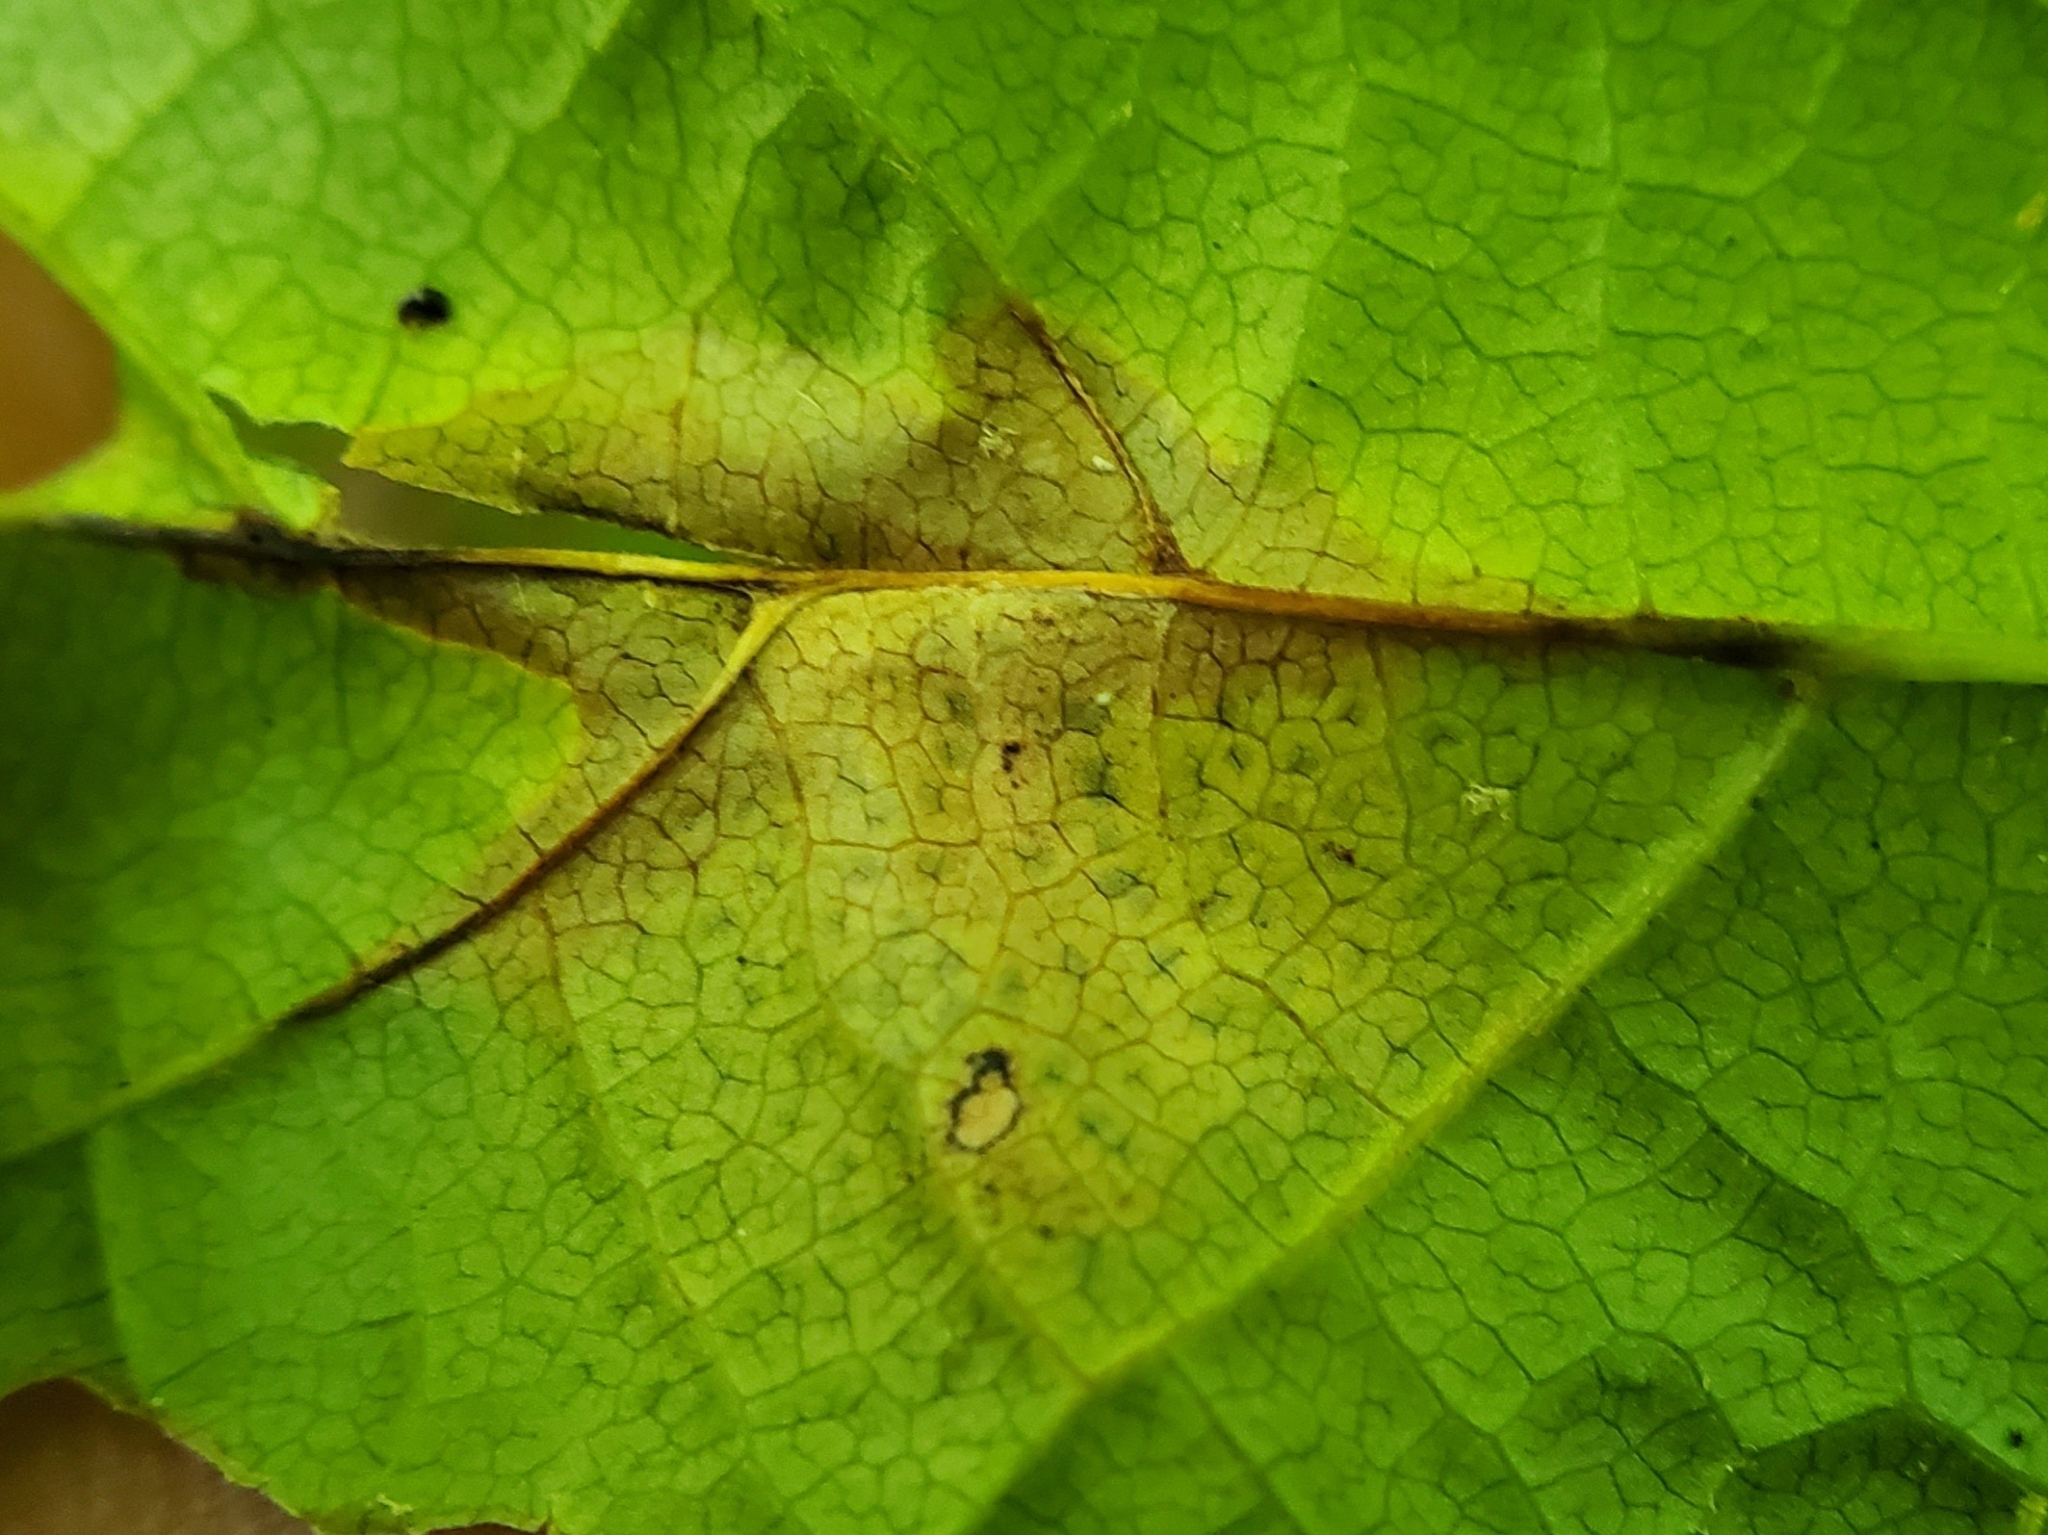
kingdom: Fungi
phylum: Ascomycota
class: Leotiomycetes
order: Rhytismatales
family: Rhytismataceae
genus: Rhytisma
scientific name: Rhytisma punctatum
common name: Speckled tar spot
